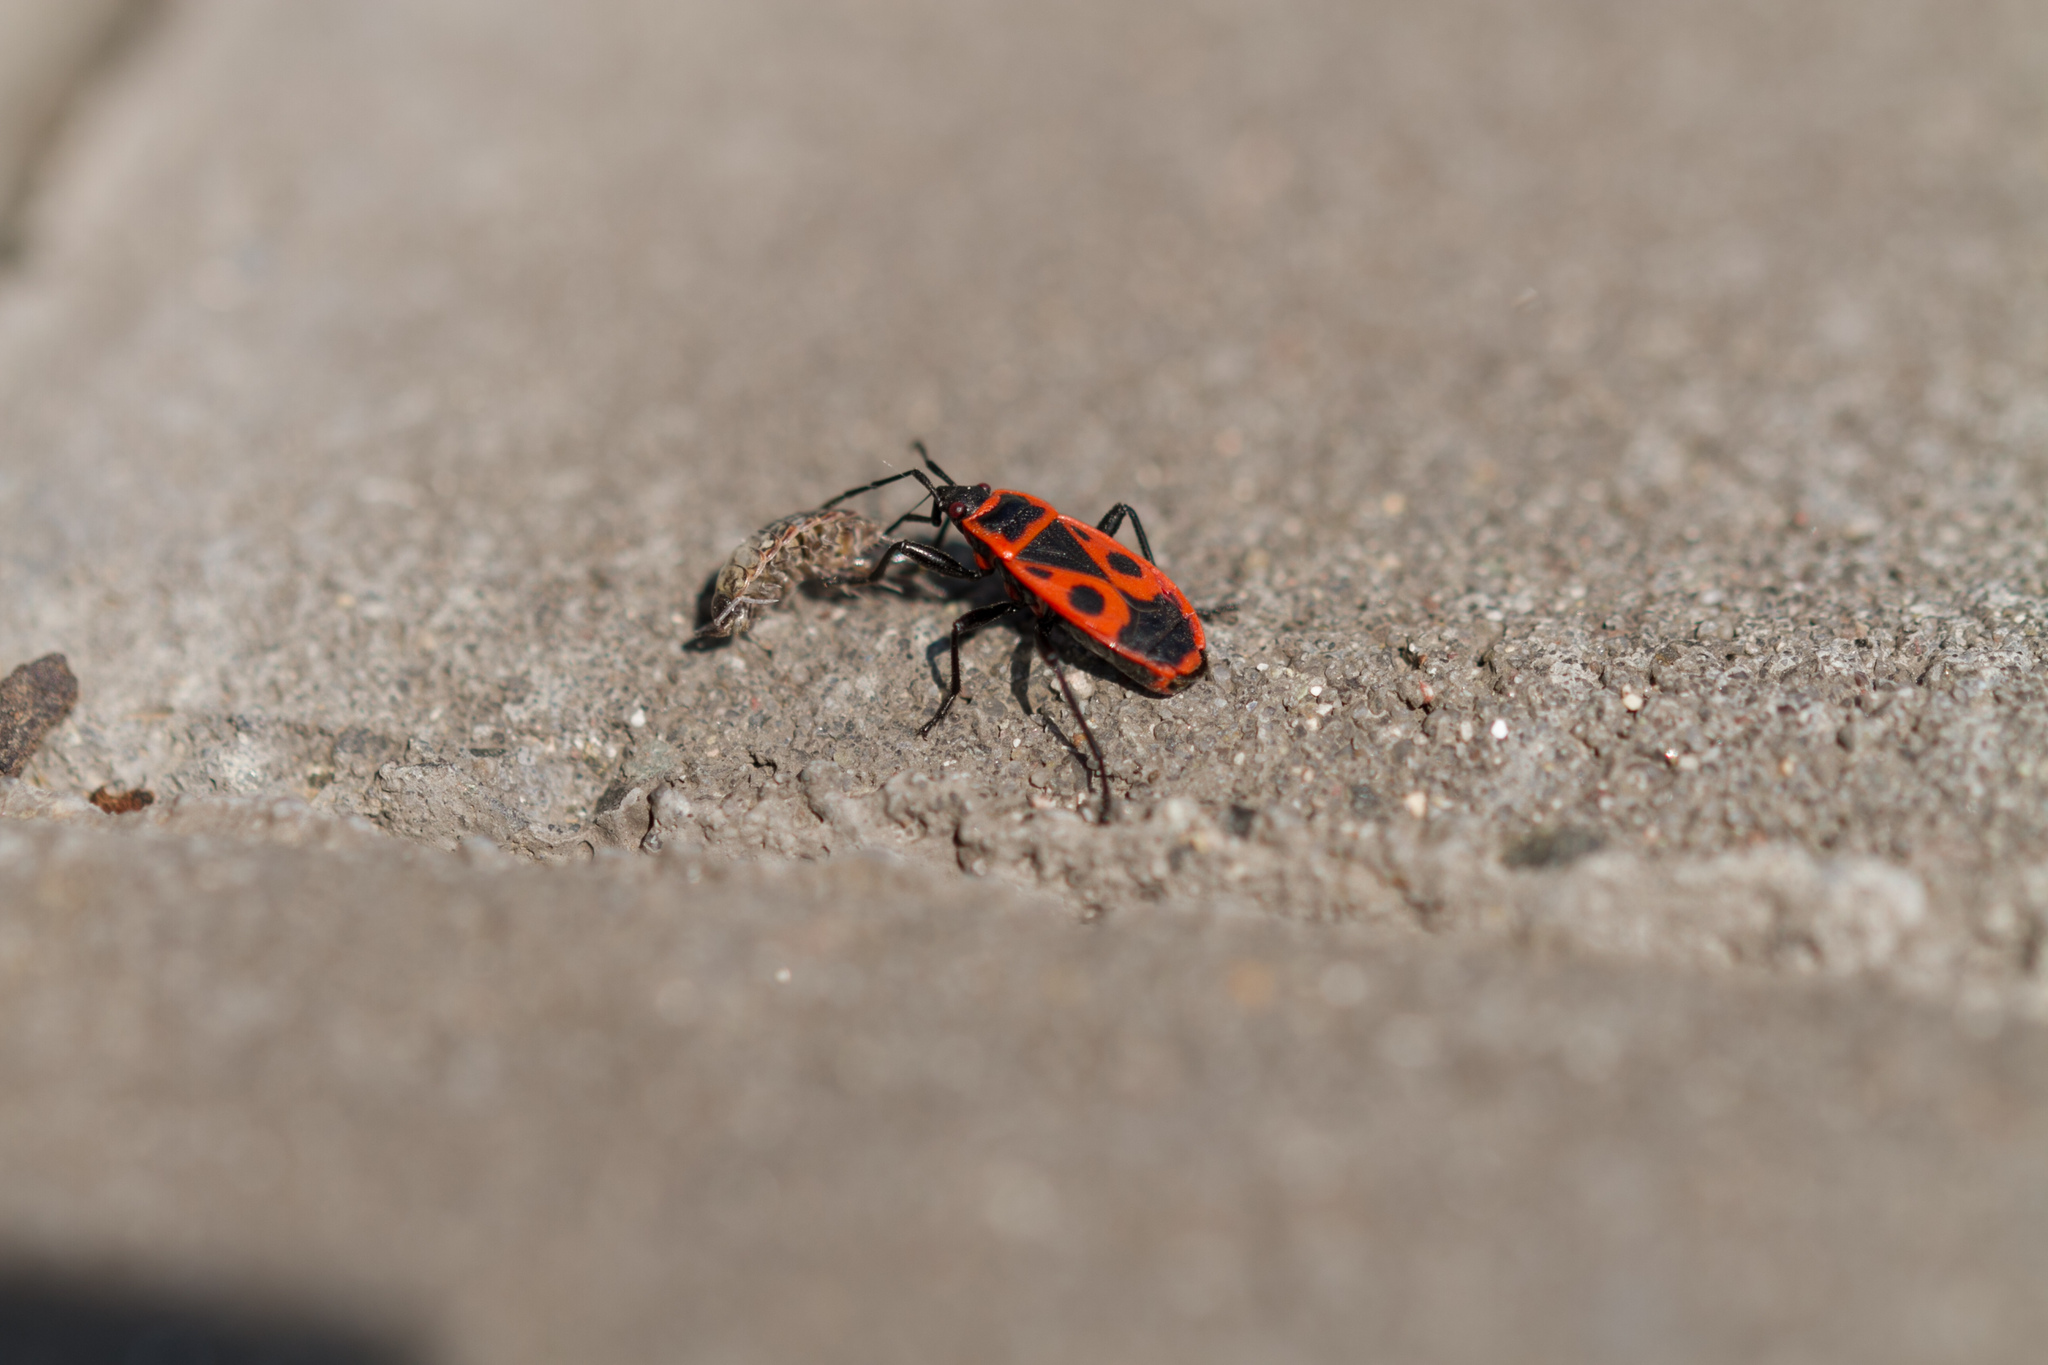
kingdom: Animalia
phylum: Arthropoda
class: Insecta
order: Hemiptera
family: Pyrrhocoridae
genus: Pyrrhocoris
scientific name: Pyrrhocoris apterus
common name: Firebug
